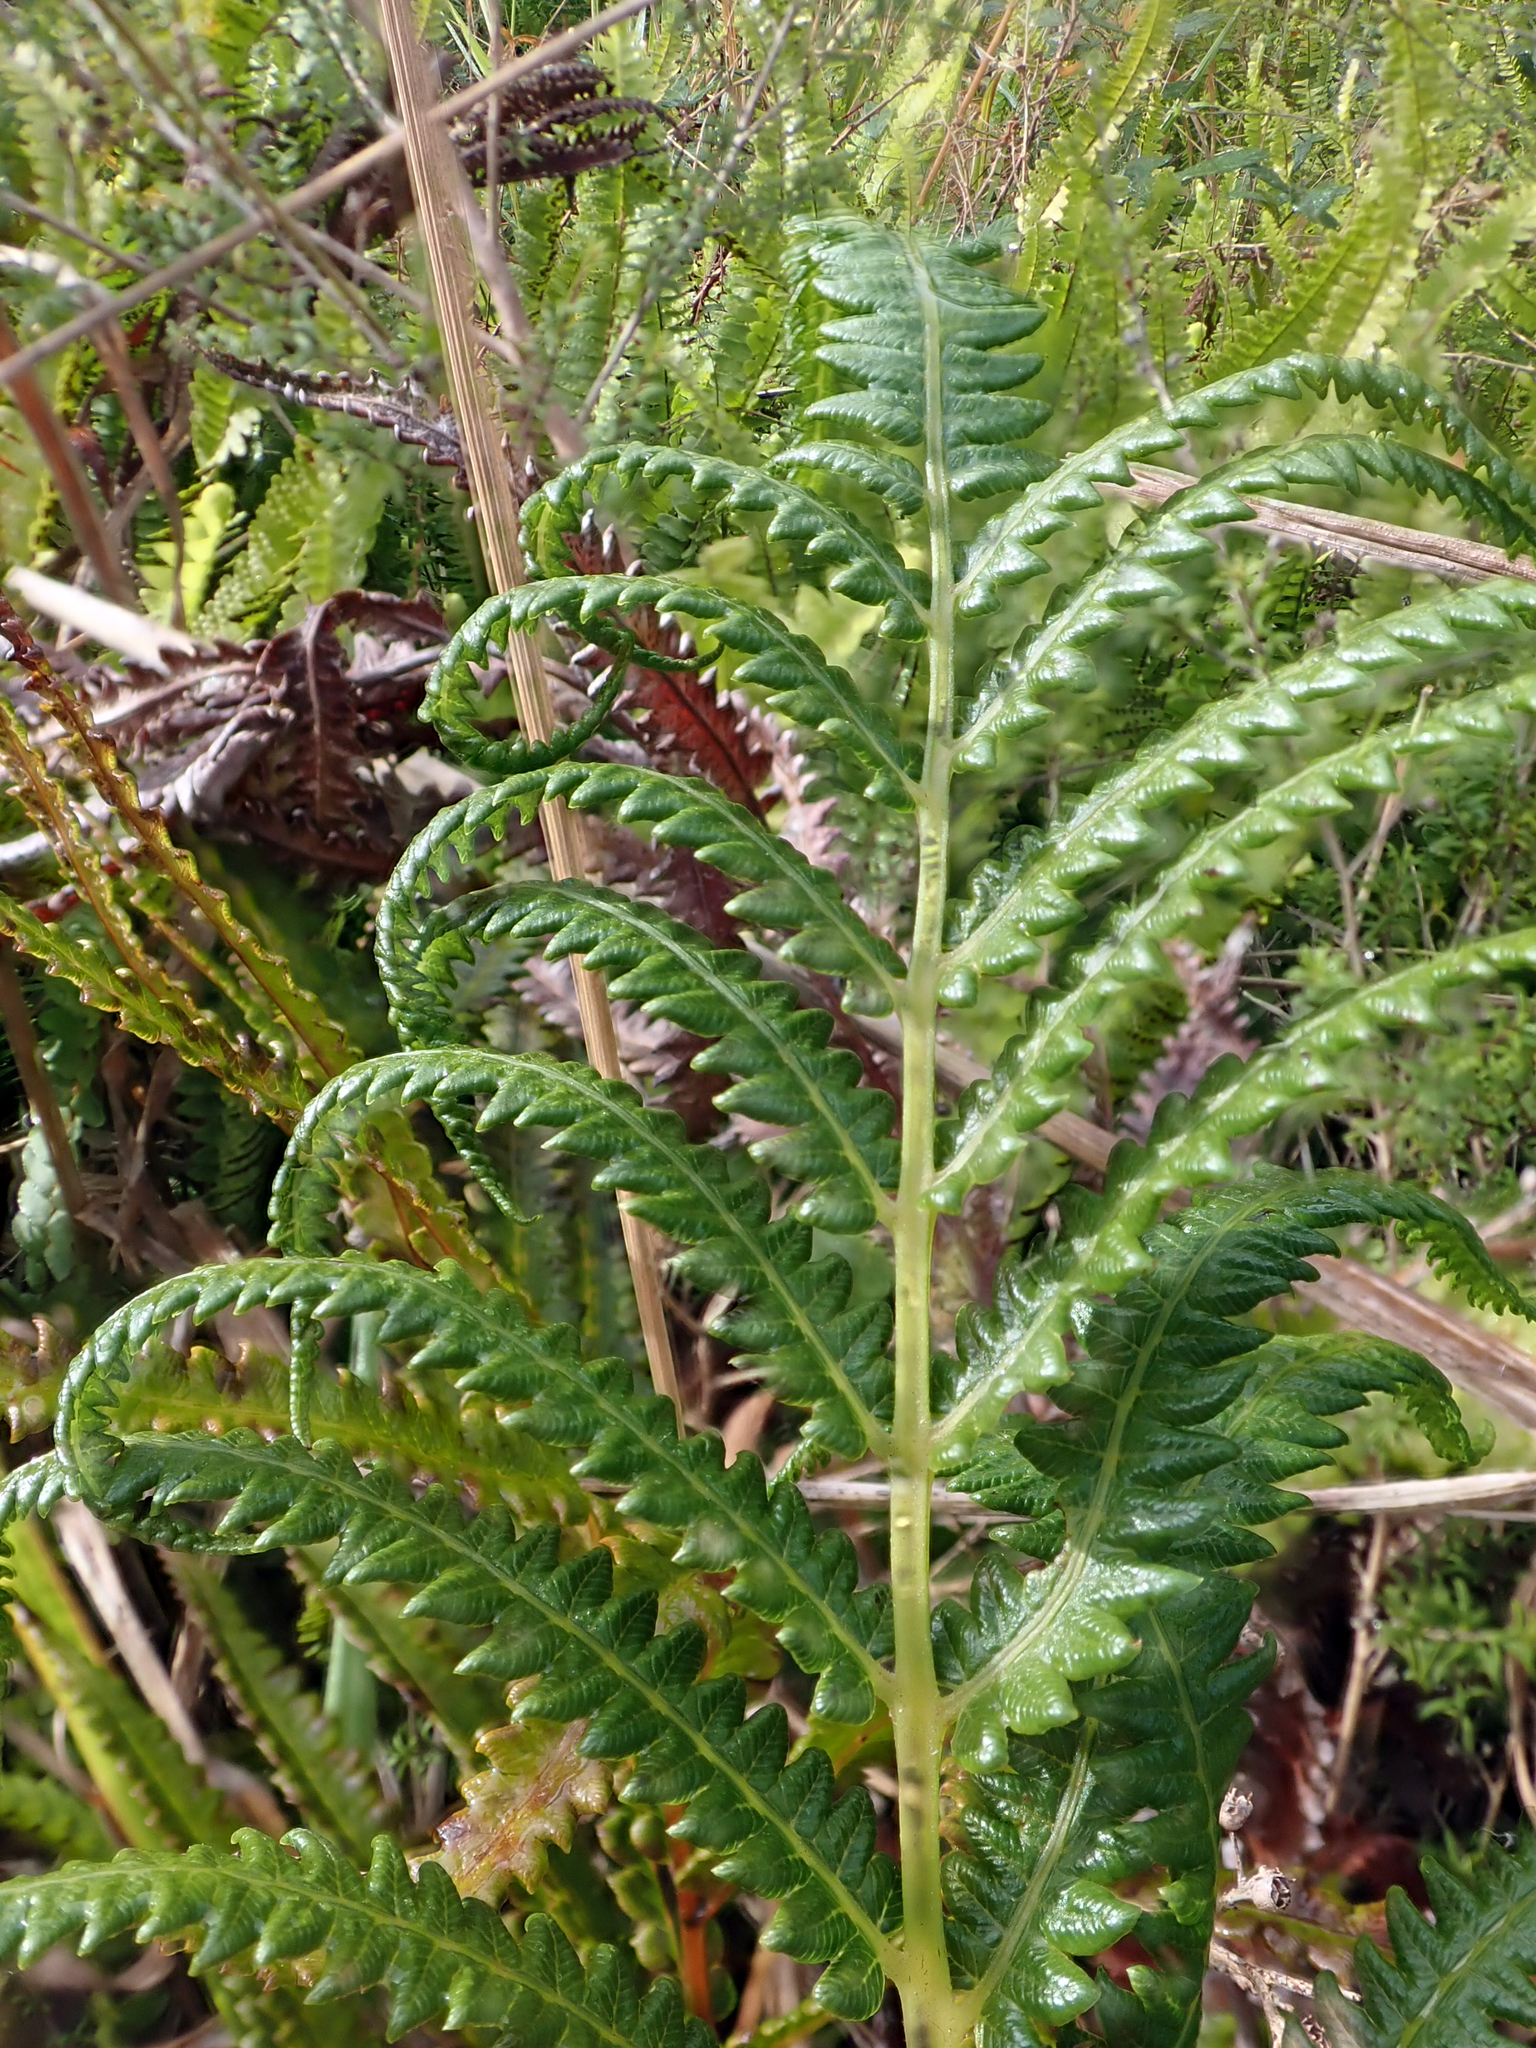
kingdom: Plantae
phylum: Tracheophyta
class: Polypodiopsida
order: Polypodiales
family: Thelypteridaceae
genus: Cyclosorus
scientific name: Cyclosorus interruptus
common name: Neke fern
